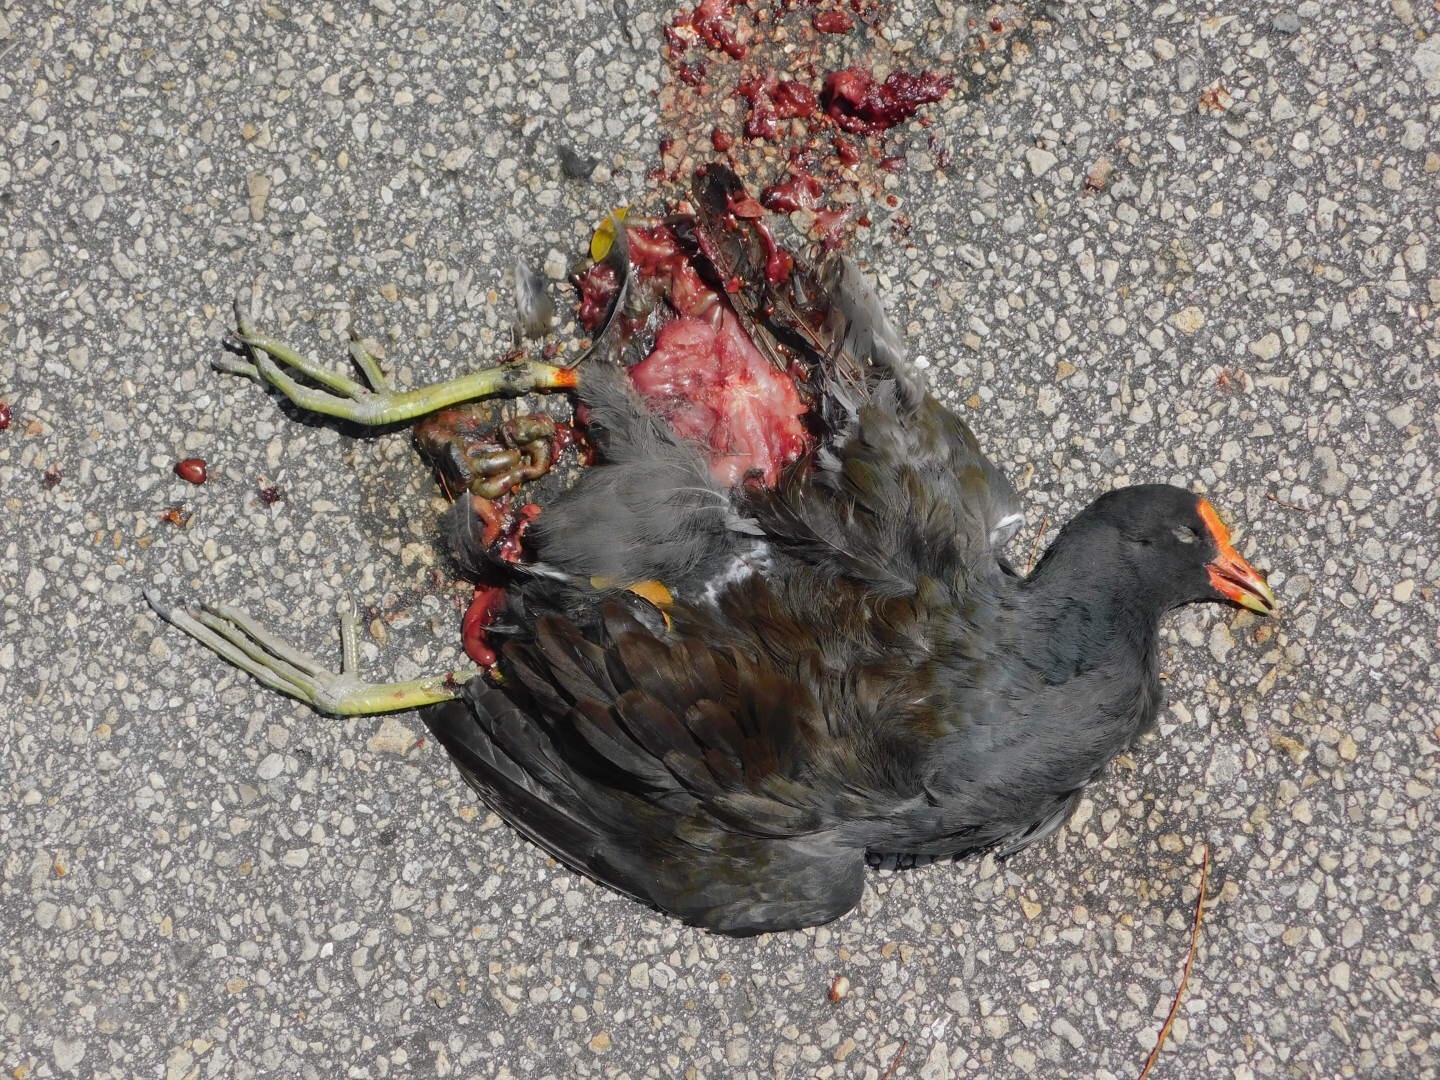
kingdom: Animalia
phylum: Chordata
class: Aves
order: Gruiformes
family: Rallidae
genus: Gallinula
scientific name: Gallinula chloropus
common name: Common moorhen
